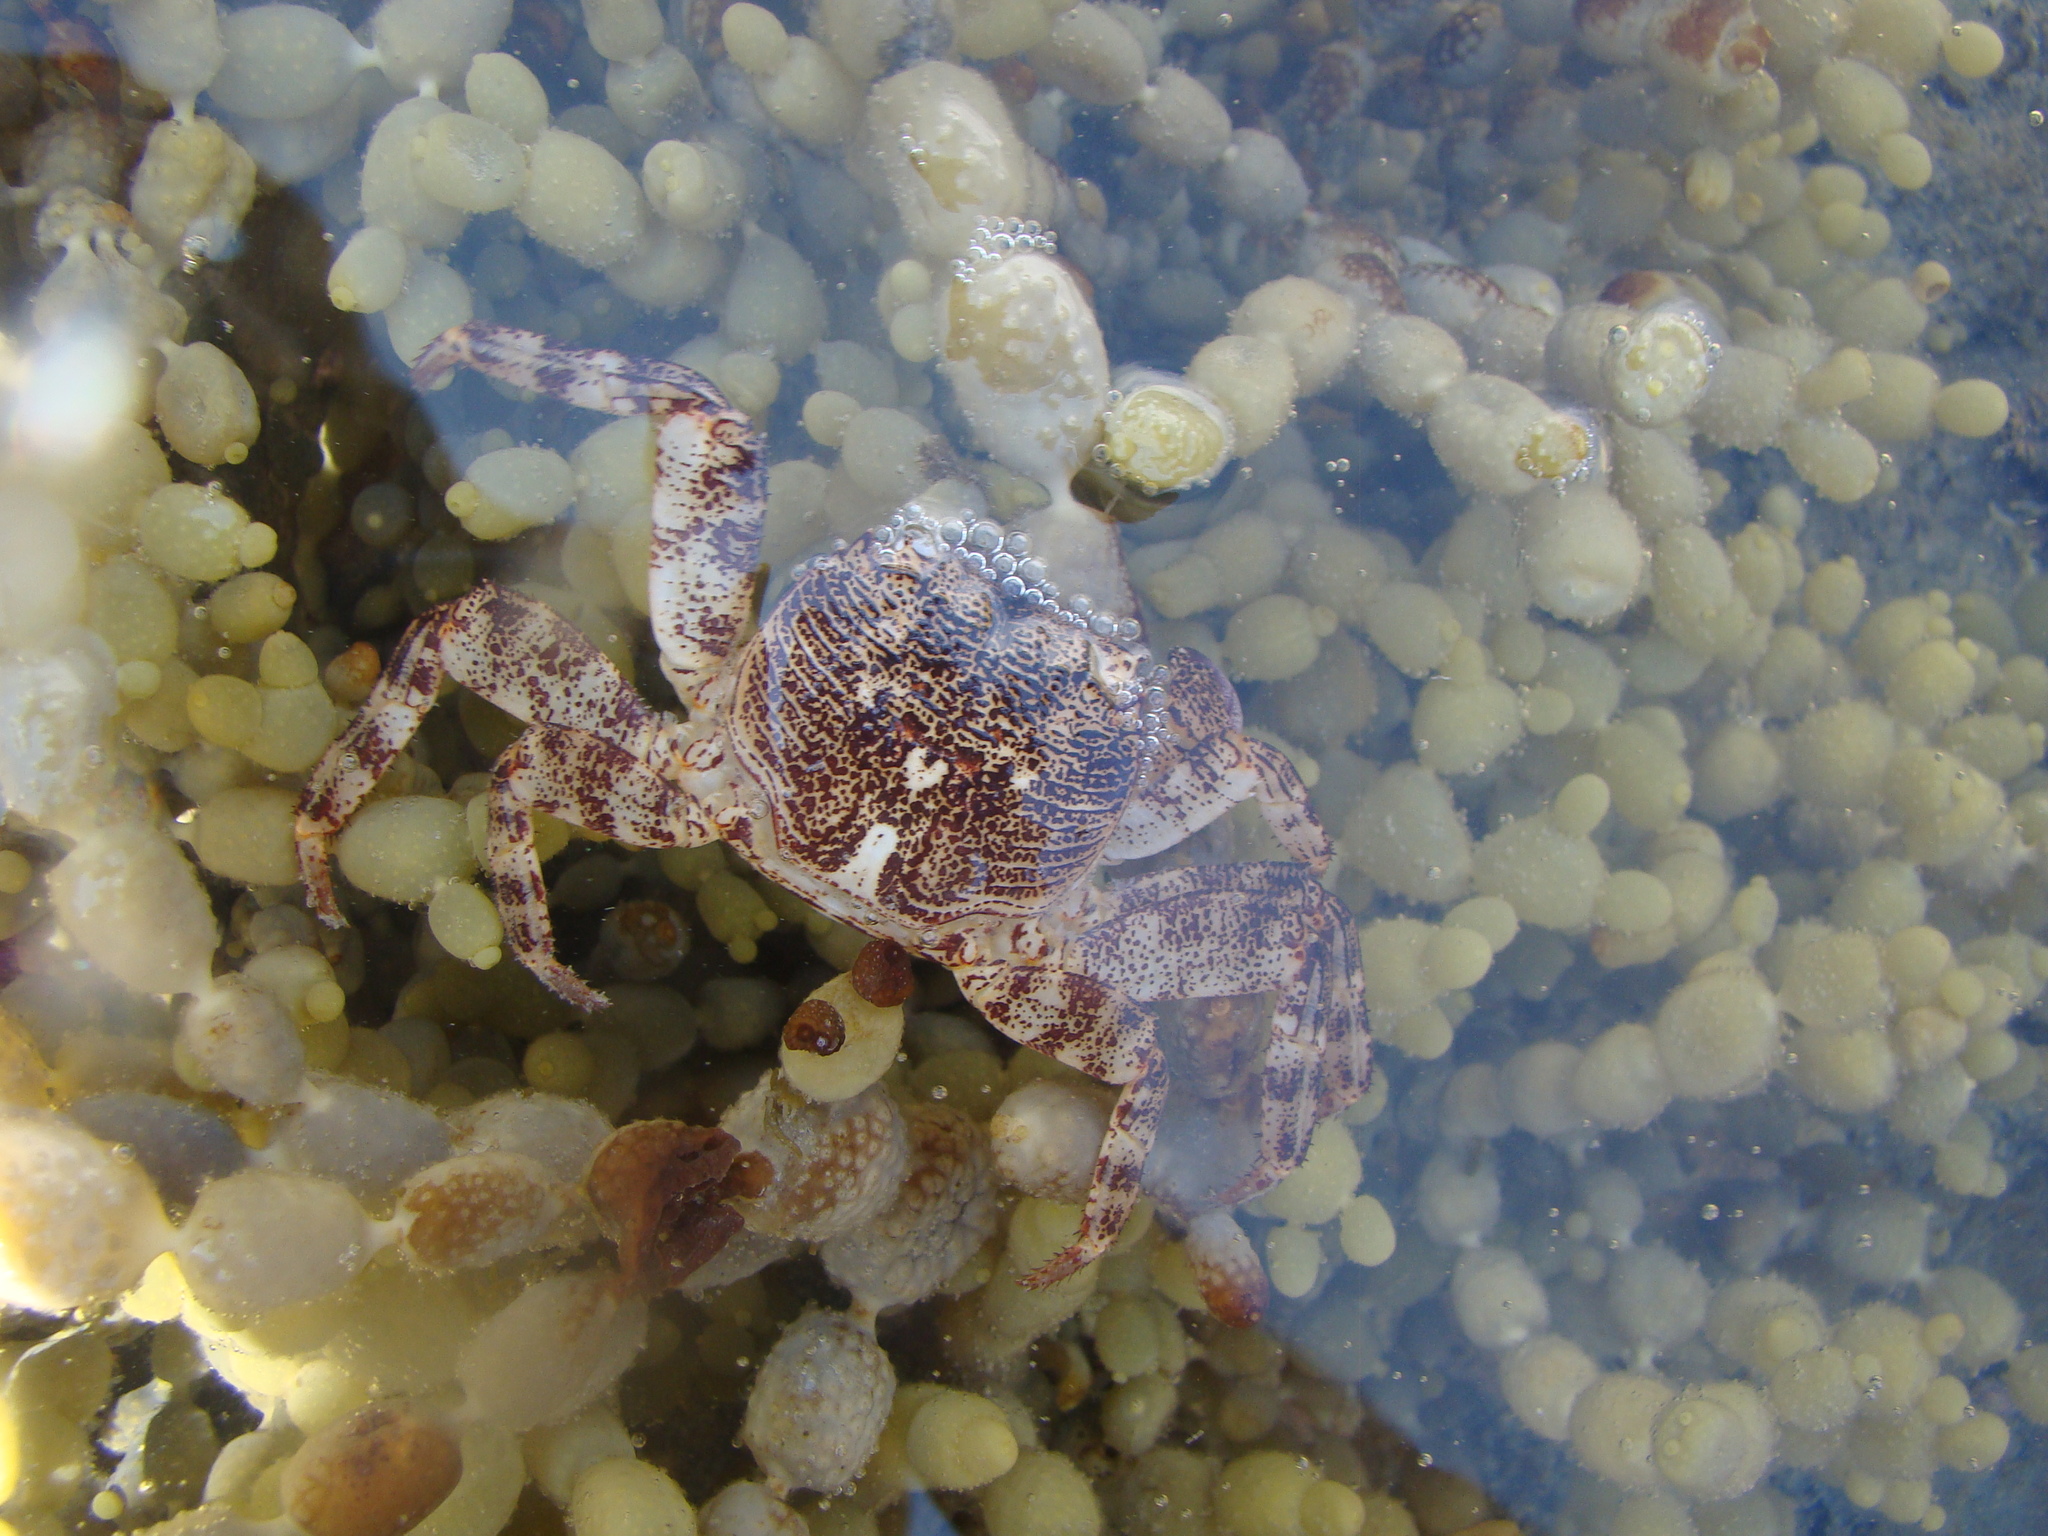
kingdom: Animalia
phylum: Arthropoda
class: Malacostraca
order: Decapoda
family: Grapsidae
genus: Leptograpsus
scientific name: Leptograpsus variegatus
